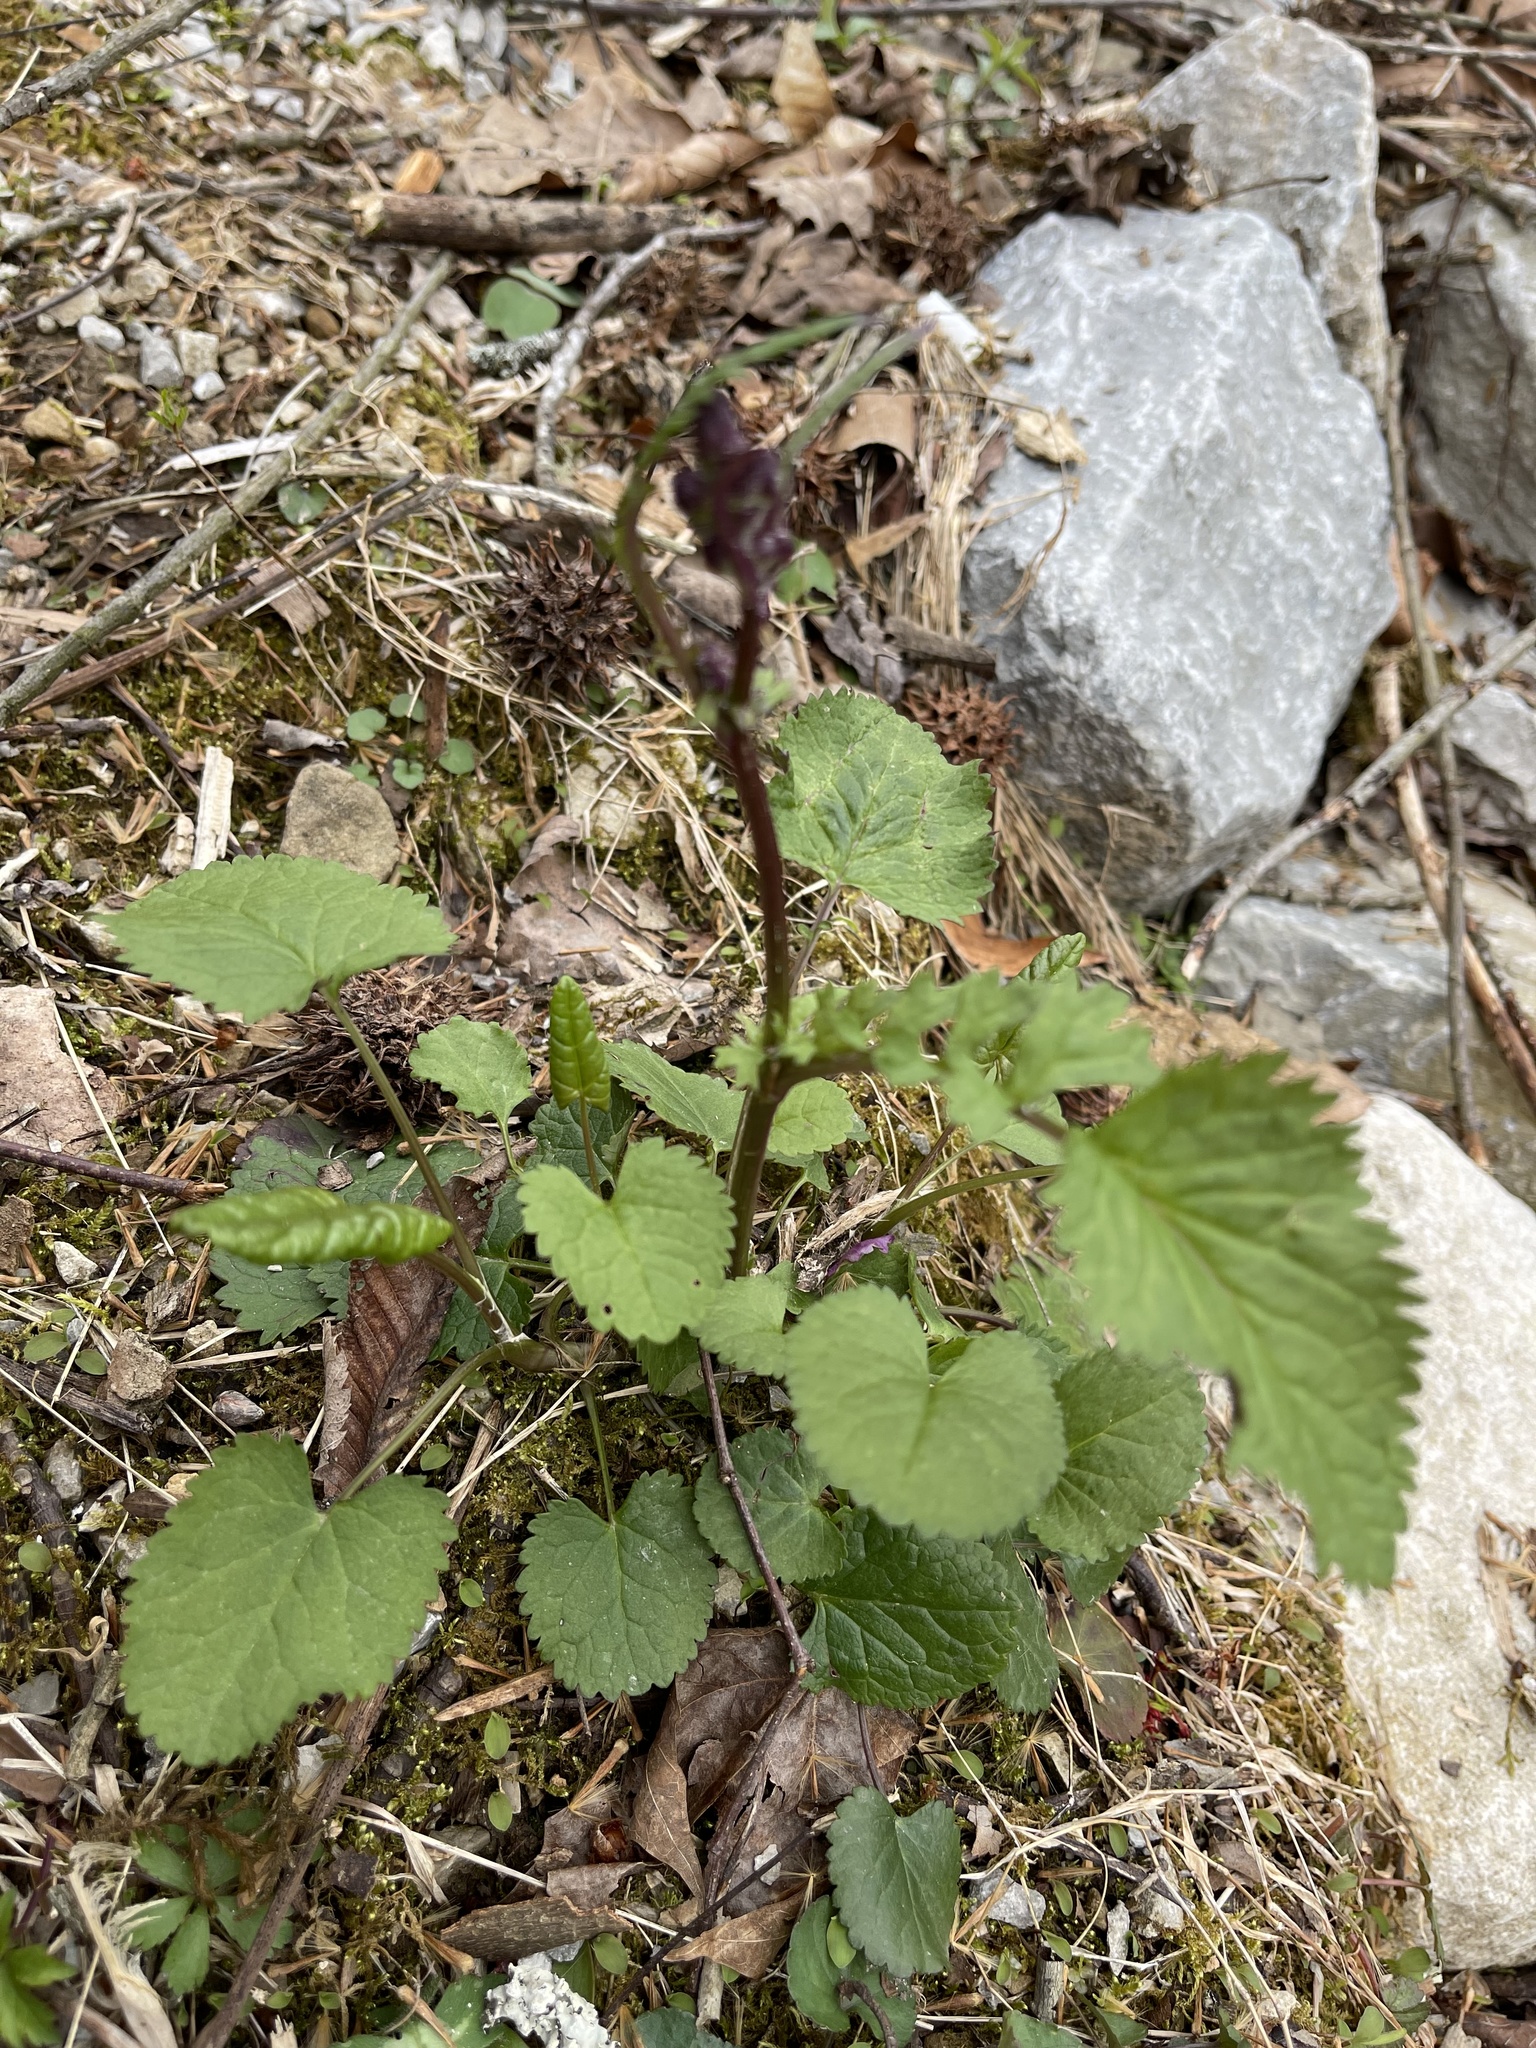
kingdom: Plantae
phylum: Tracheophyta
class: Magnoliopsida
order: Asterales
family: Asteraceae
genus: Packera
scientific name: Packera aurea
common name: Golden groundsel
